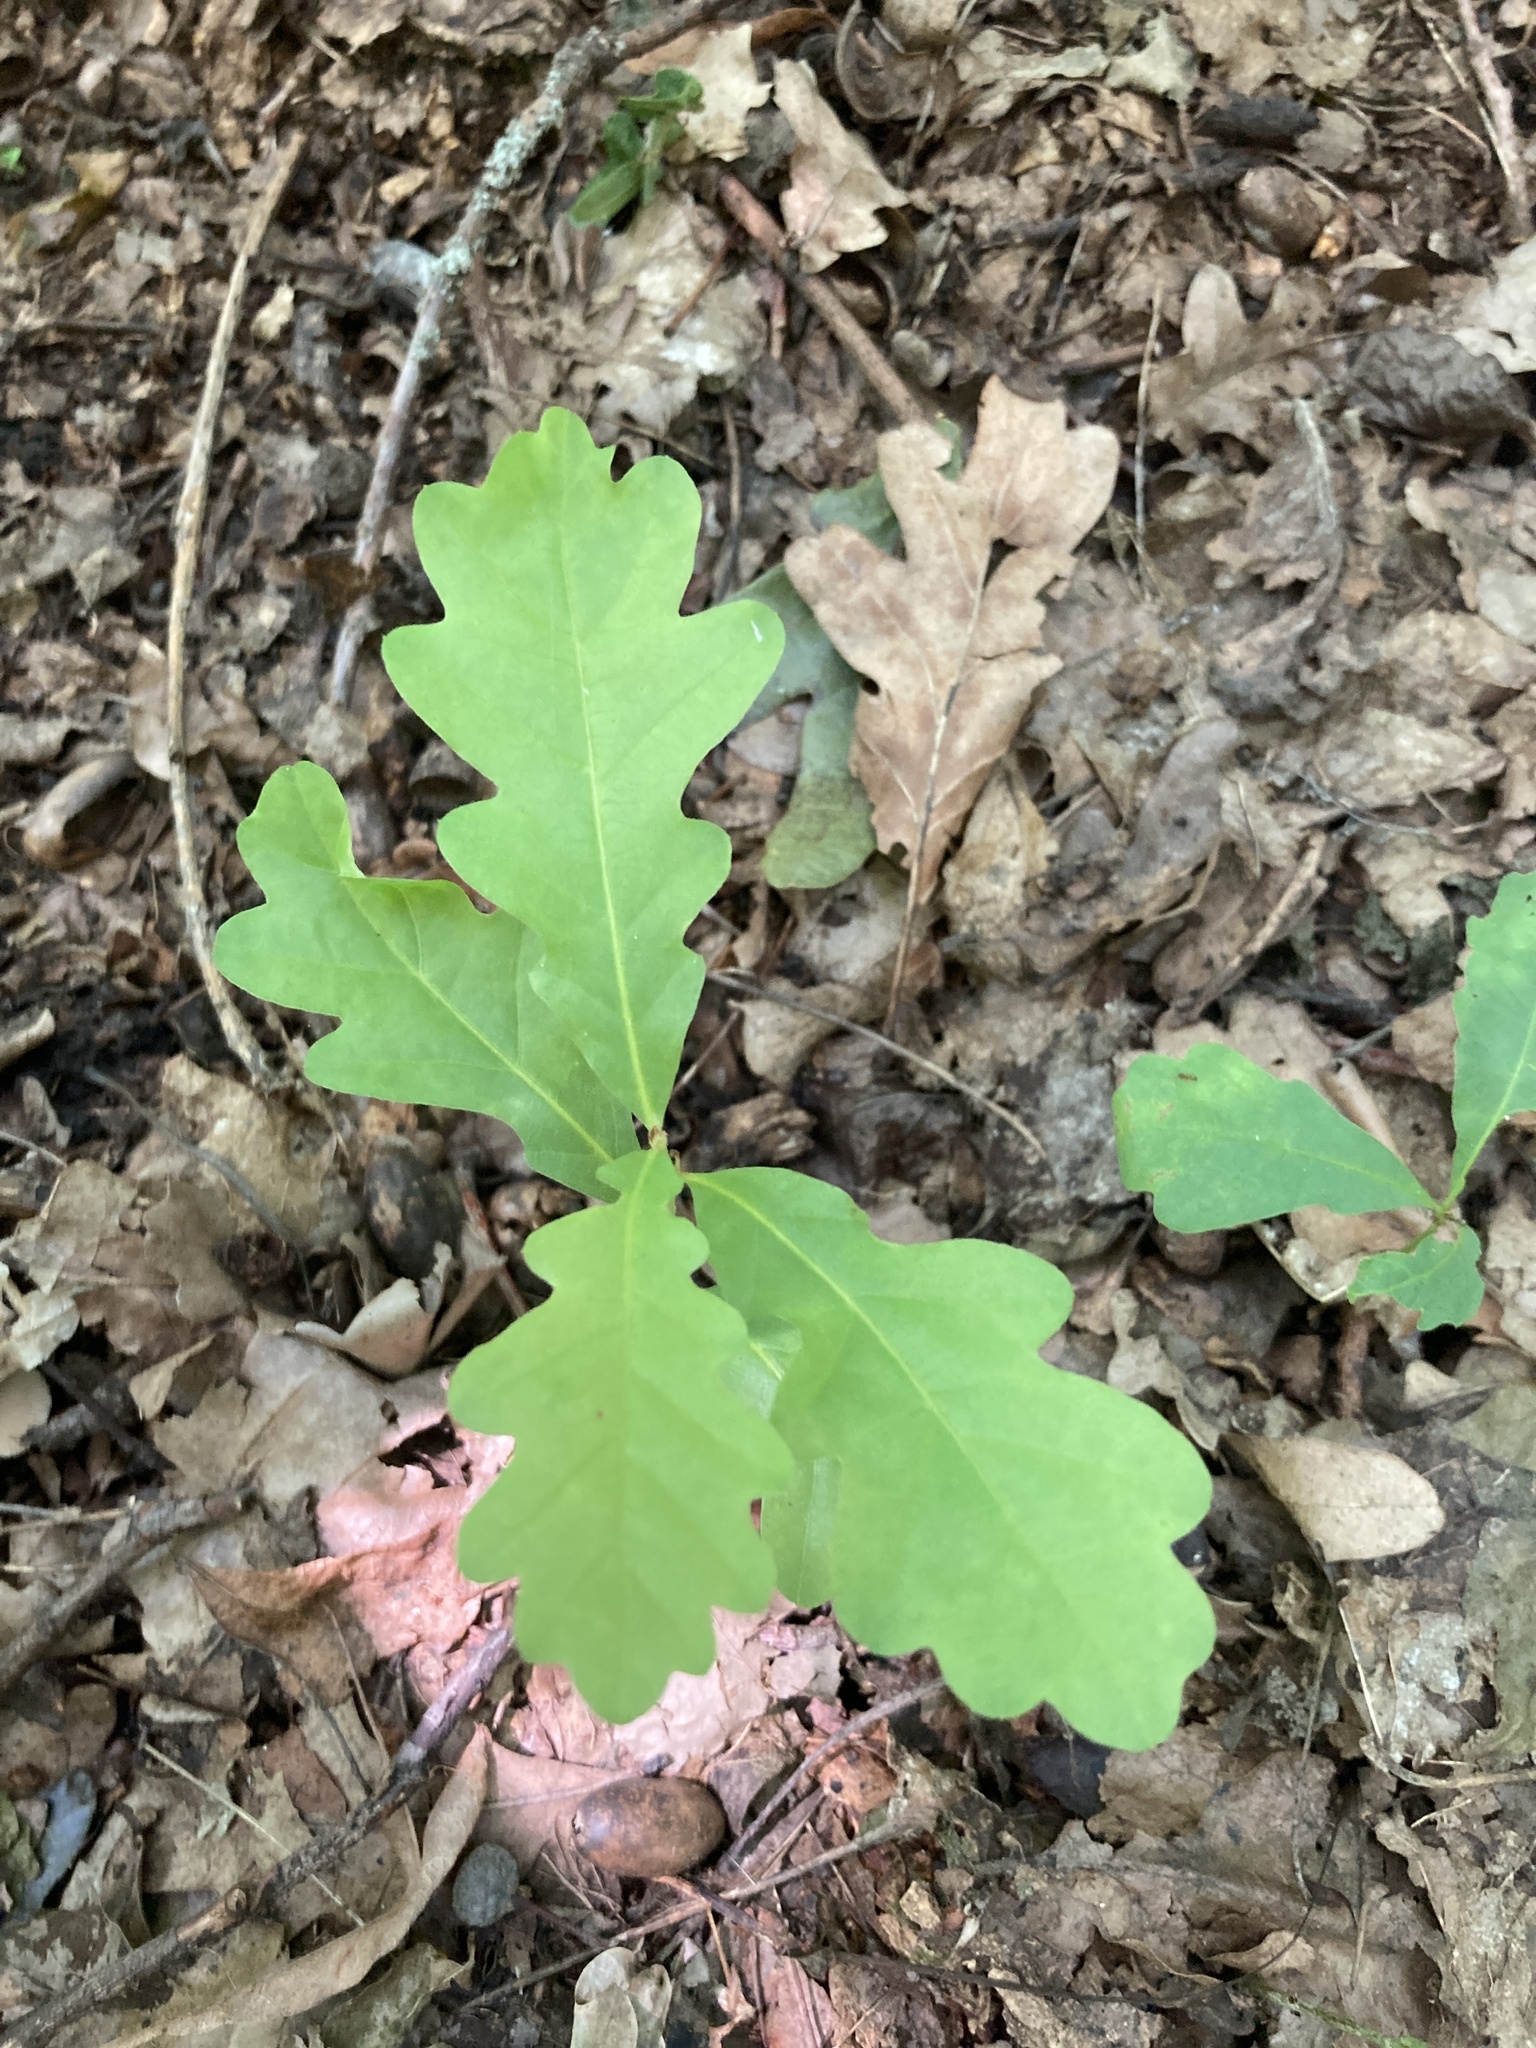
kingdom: Plantae
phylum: Tracheophyta
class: Magnoliopsida
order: Fagales
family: Fagaceae
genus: Quercus
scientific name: Quercus robur
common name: Pedunculate oak
